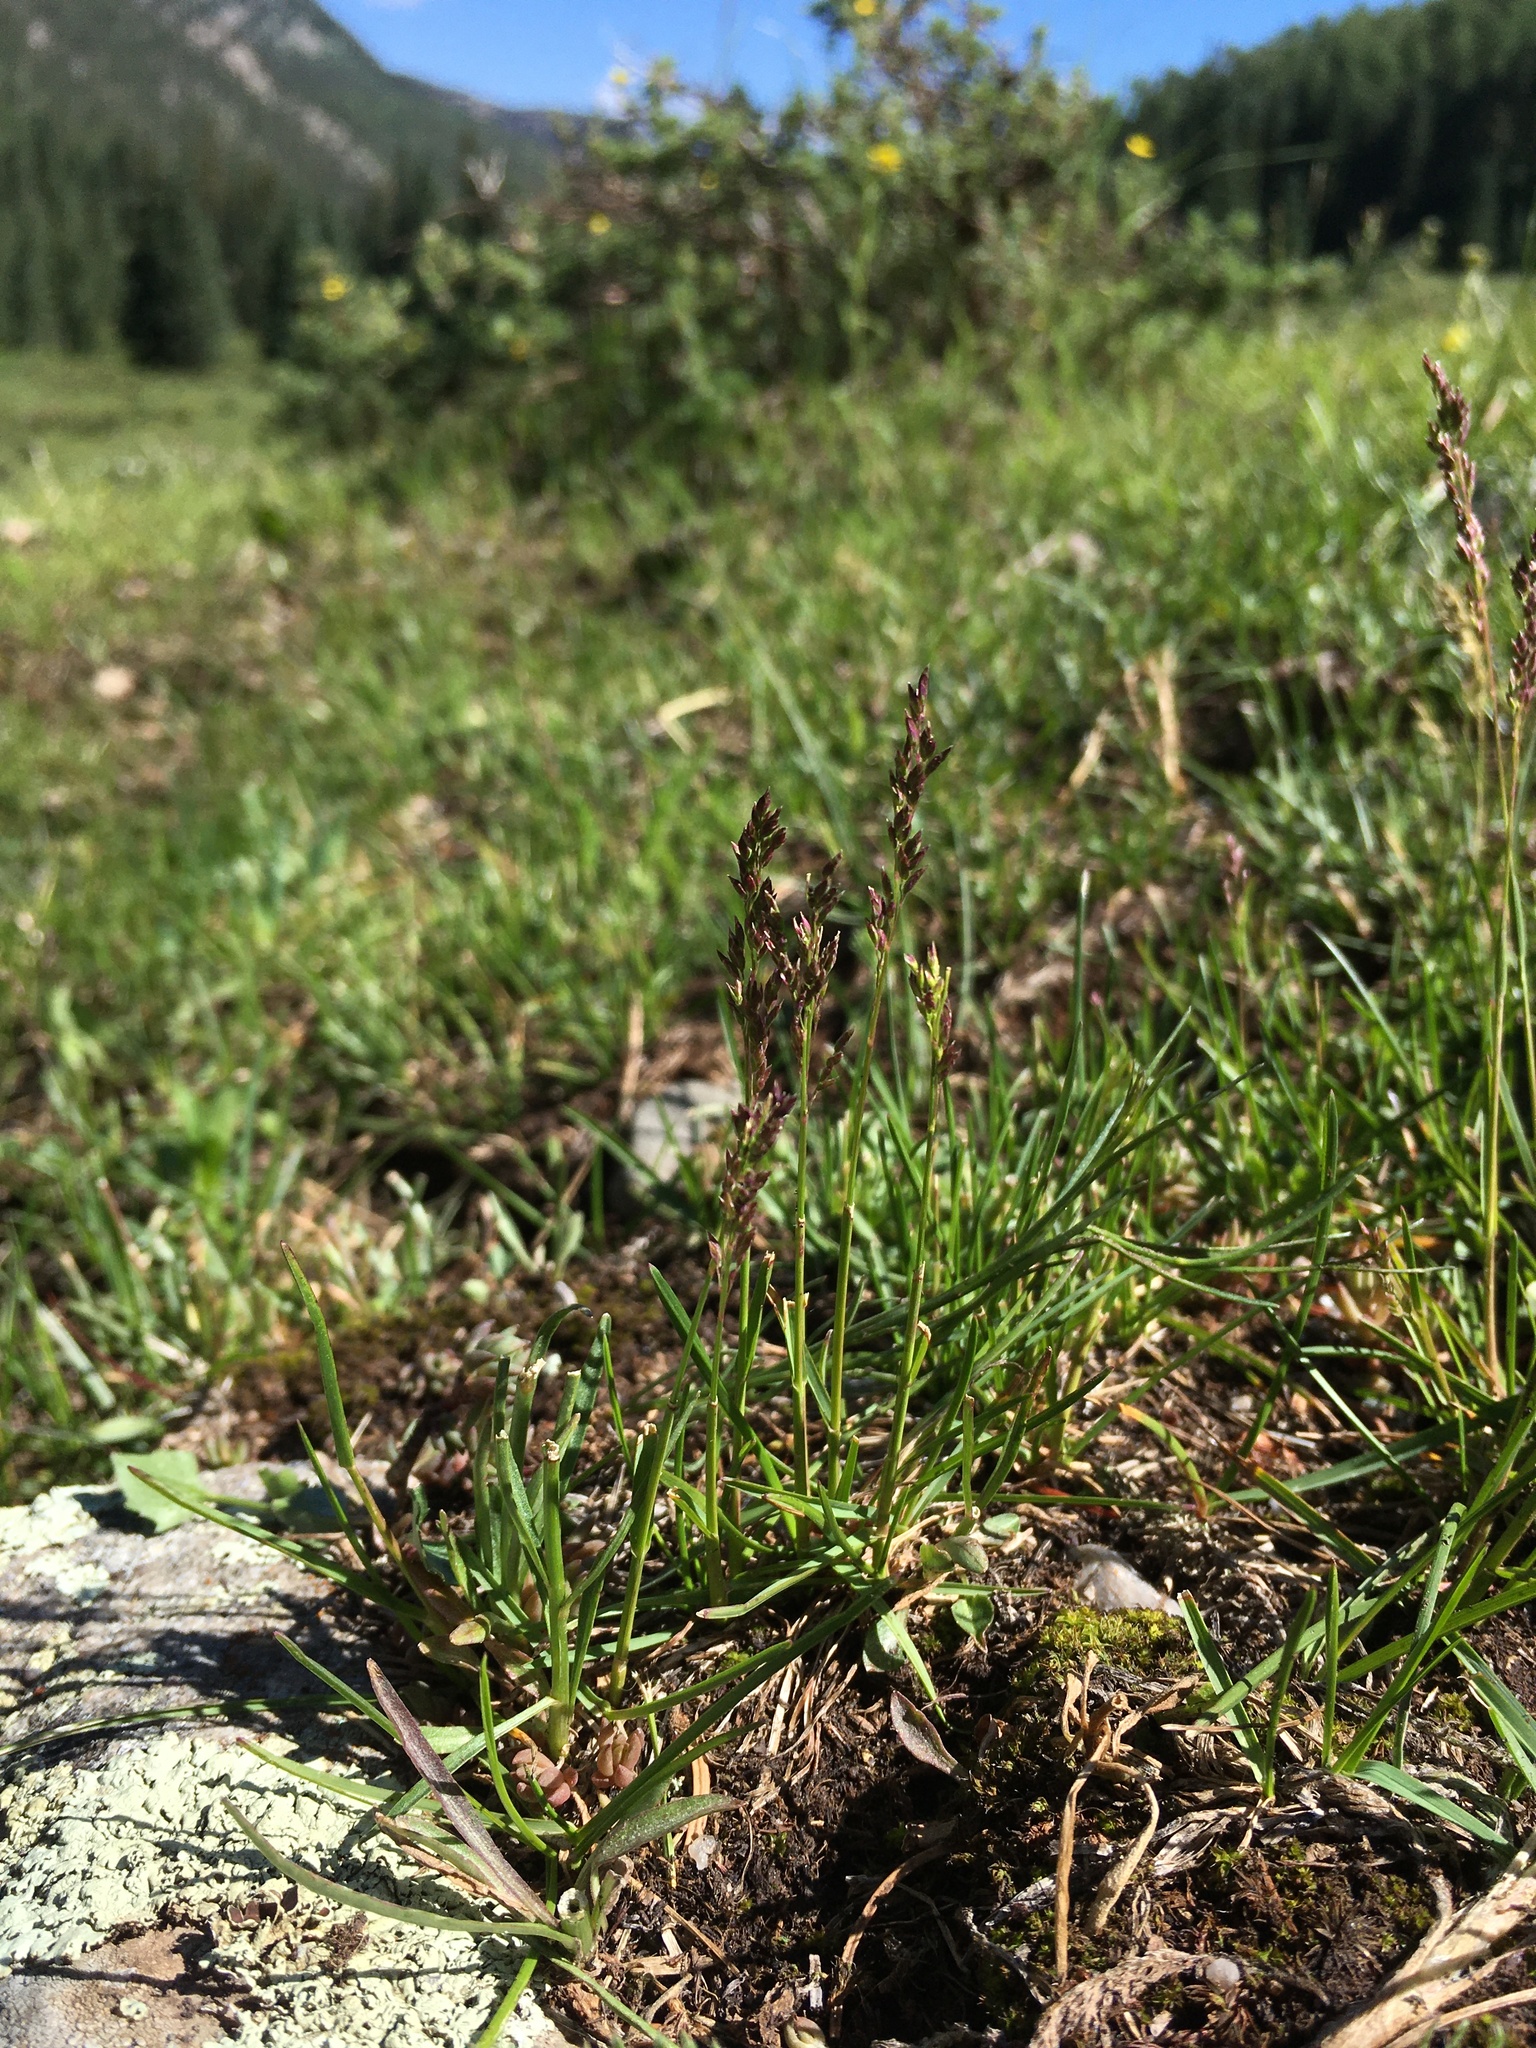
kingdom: Plantae
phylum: Tracheophyta
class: Liliopsida
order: Poales
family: Poaceae
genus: Poa
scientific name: Poa alpina
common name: Alpine bluegrass
